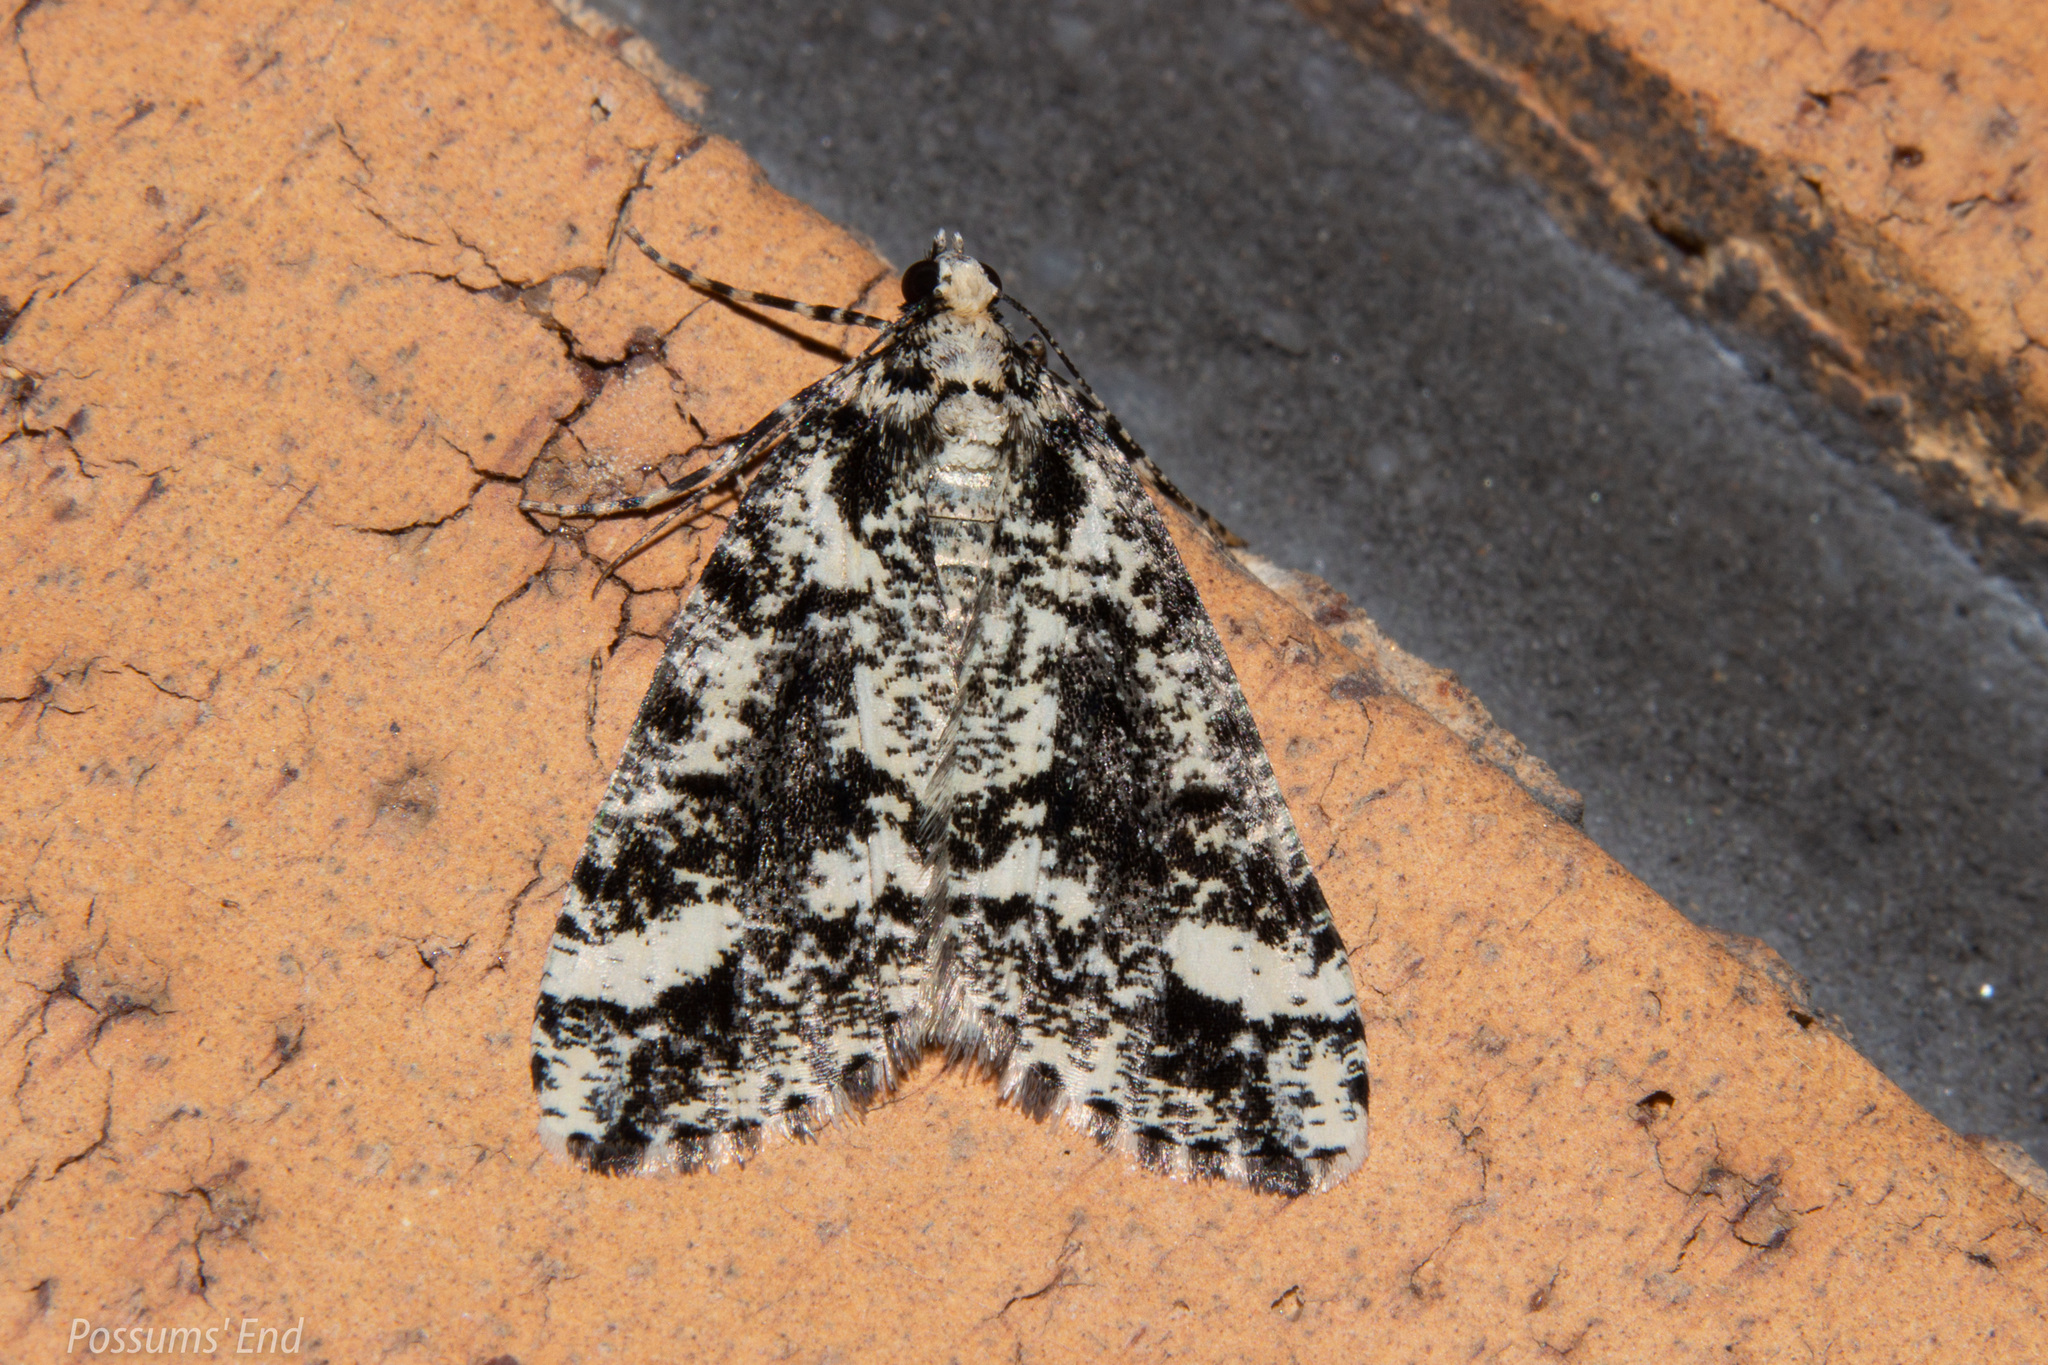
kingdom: Animalia
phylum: Arthropoda
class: Insecta
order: Lepidoptera
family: Geometridae
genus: Pseudocoremia
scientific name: Pseudocoremia leucelaea
